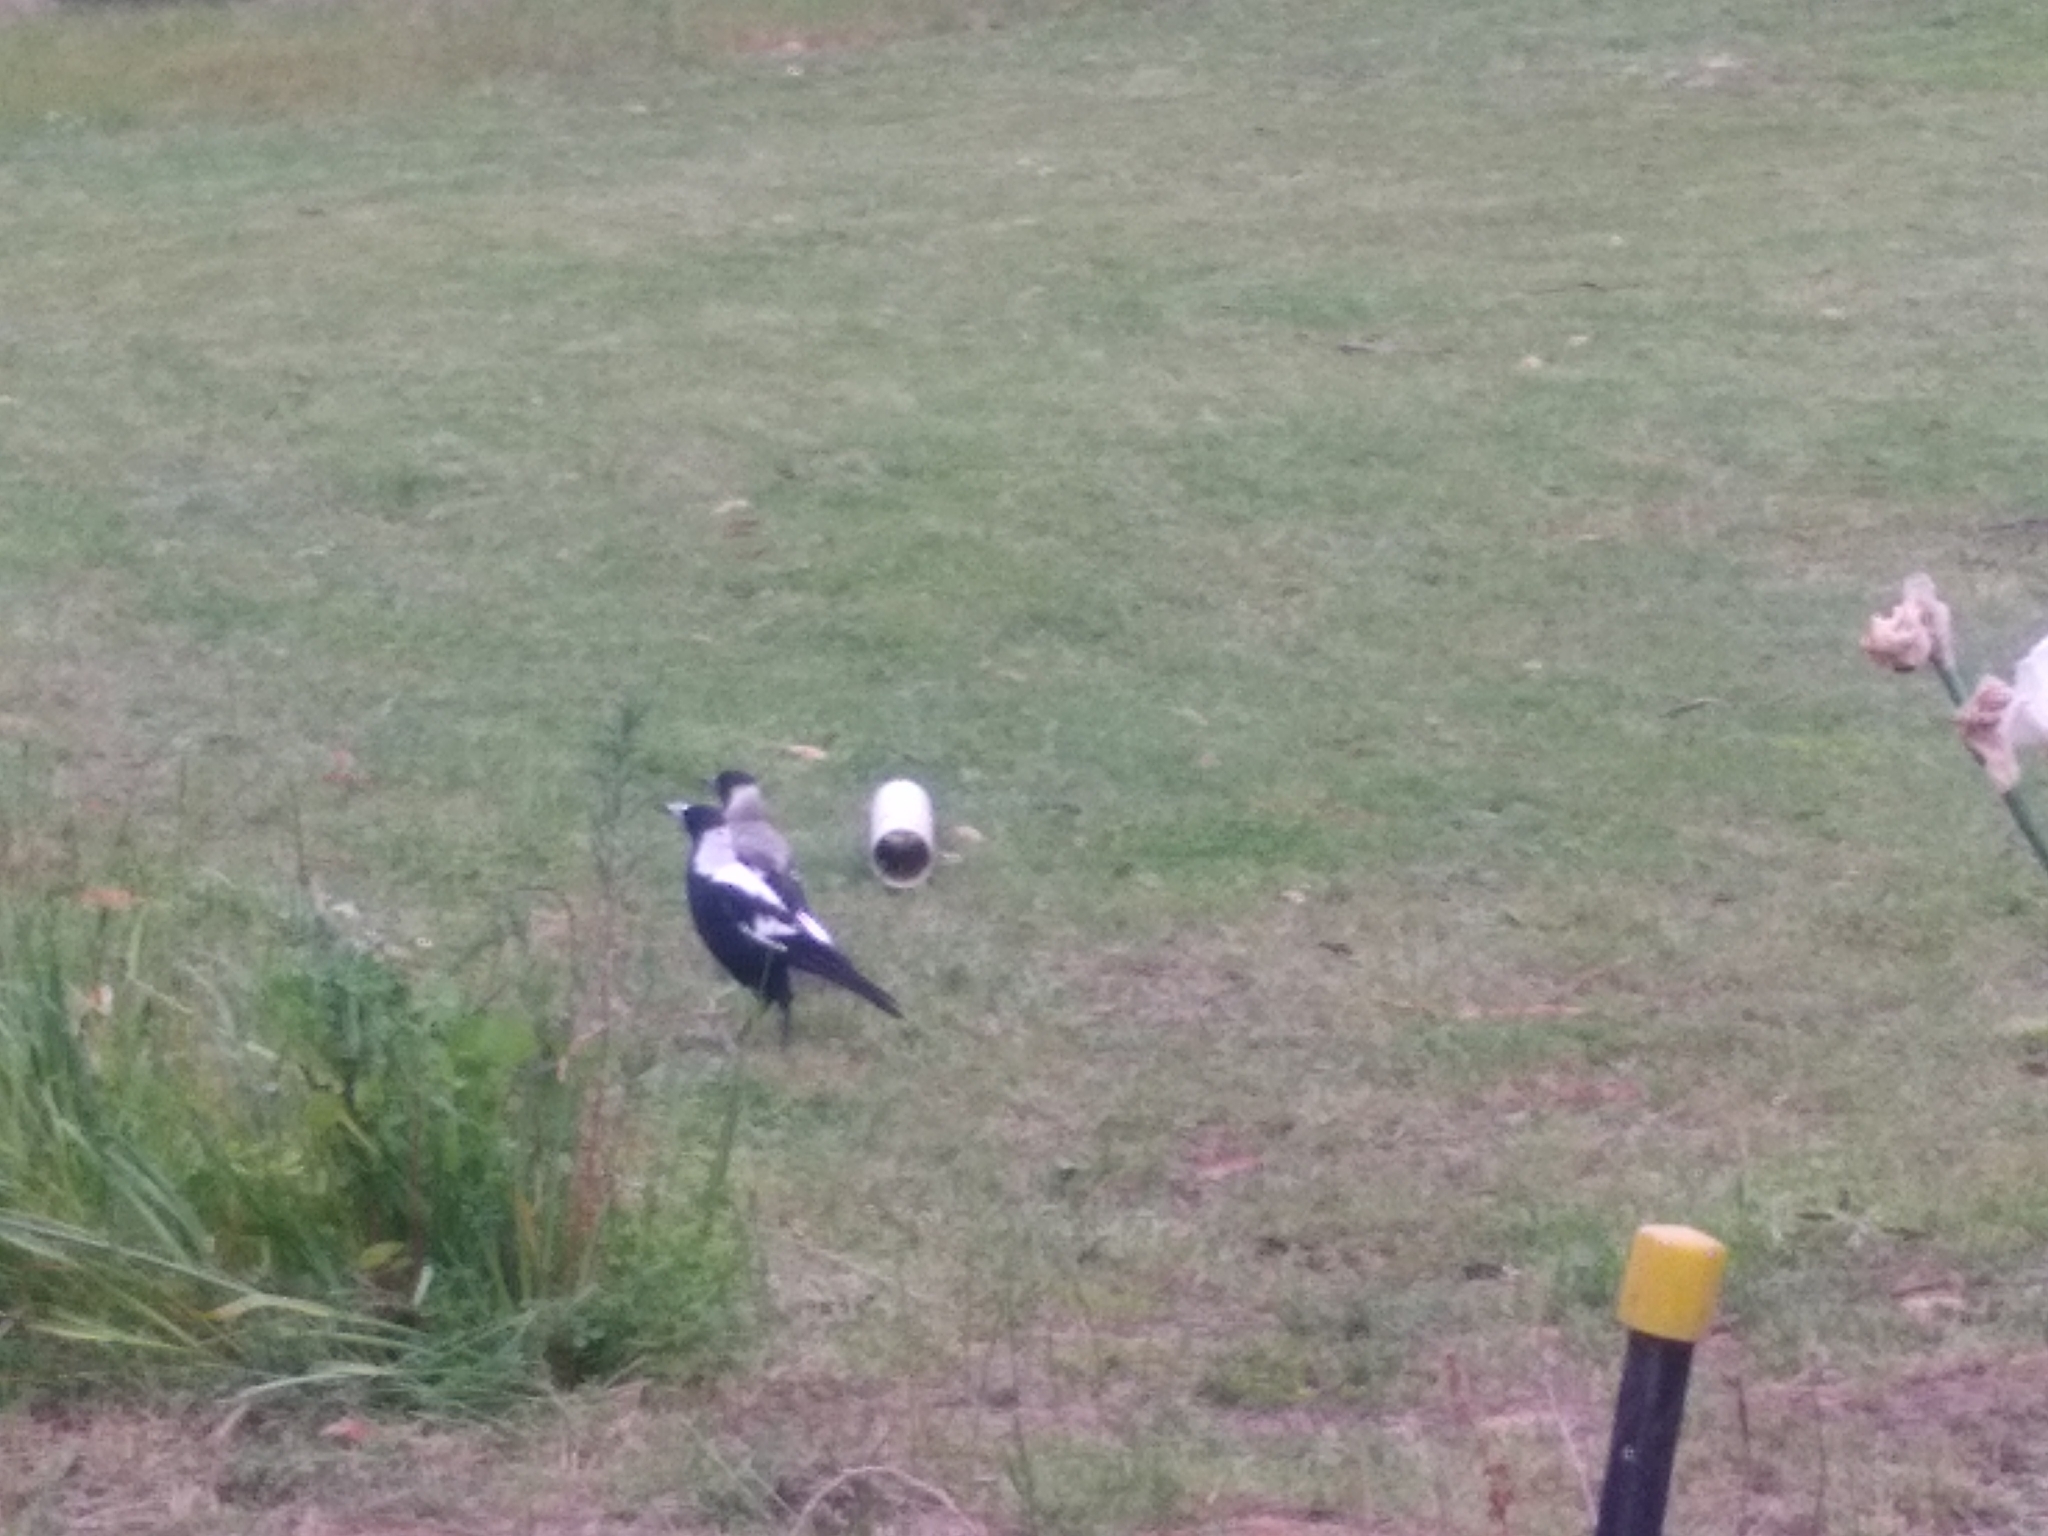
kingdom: Animalia
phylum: Chordata
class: Aves
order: Passeriformes
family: Cracticidae
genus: Gymnorhina
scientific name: Gymnorhina tibicen
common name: Australian magpie
